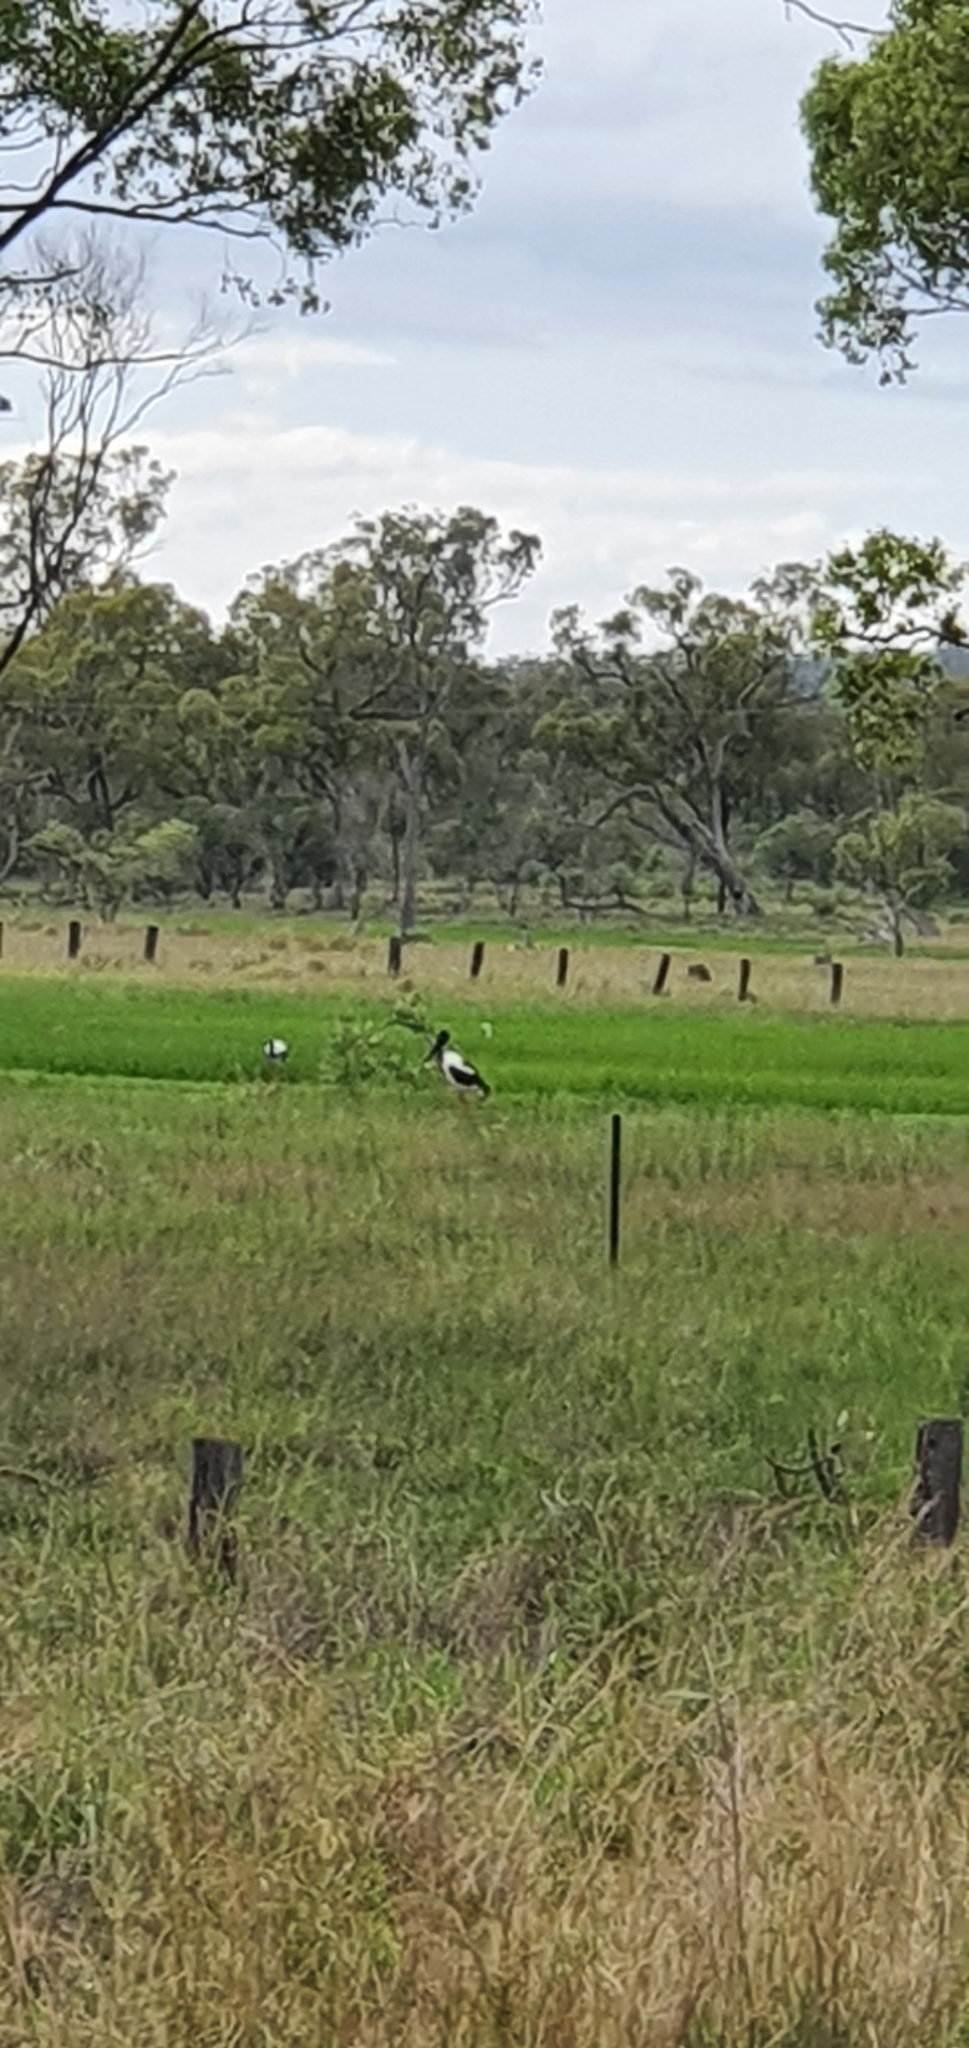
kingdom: Animalia
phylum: Chordata
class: Aves
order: Ciconiiformes
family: Ciconiidae
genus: Ephippiorhynchus
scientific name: Ephippiorhynchus asiaticus
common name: Black-necked stork
